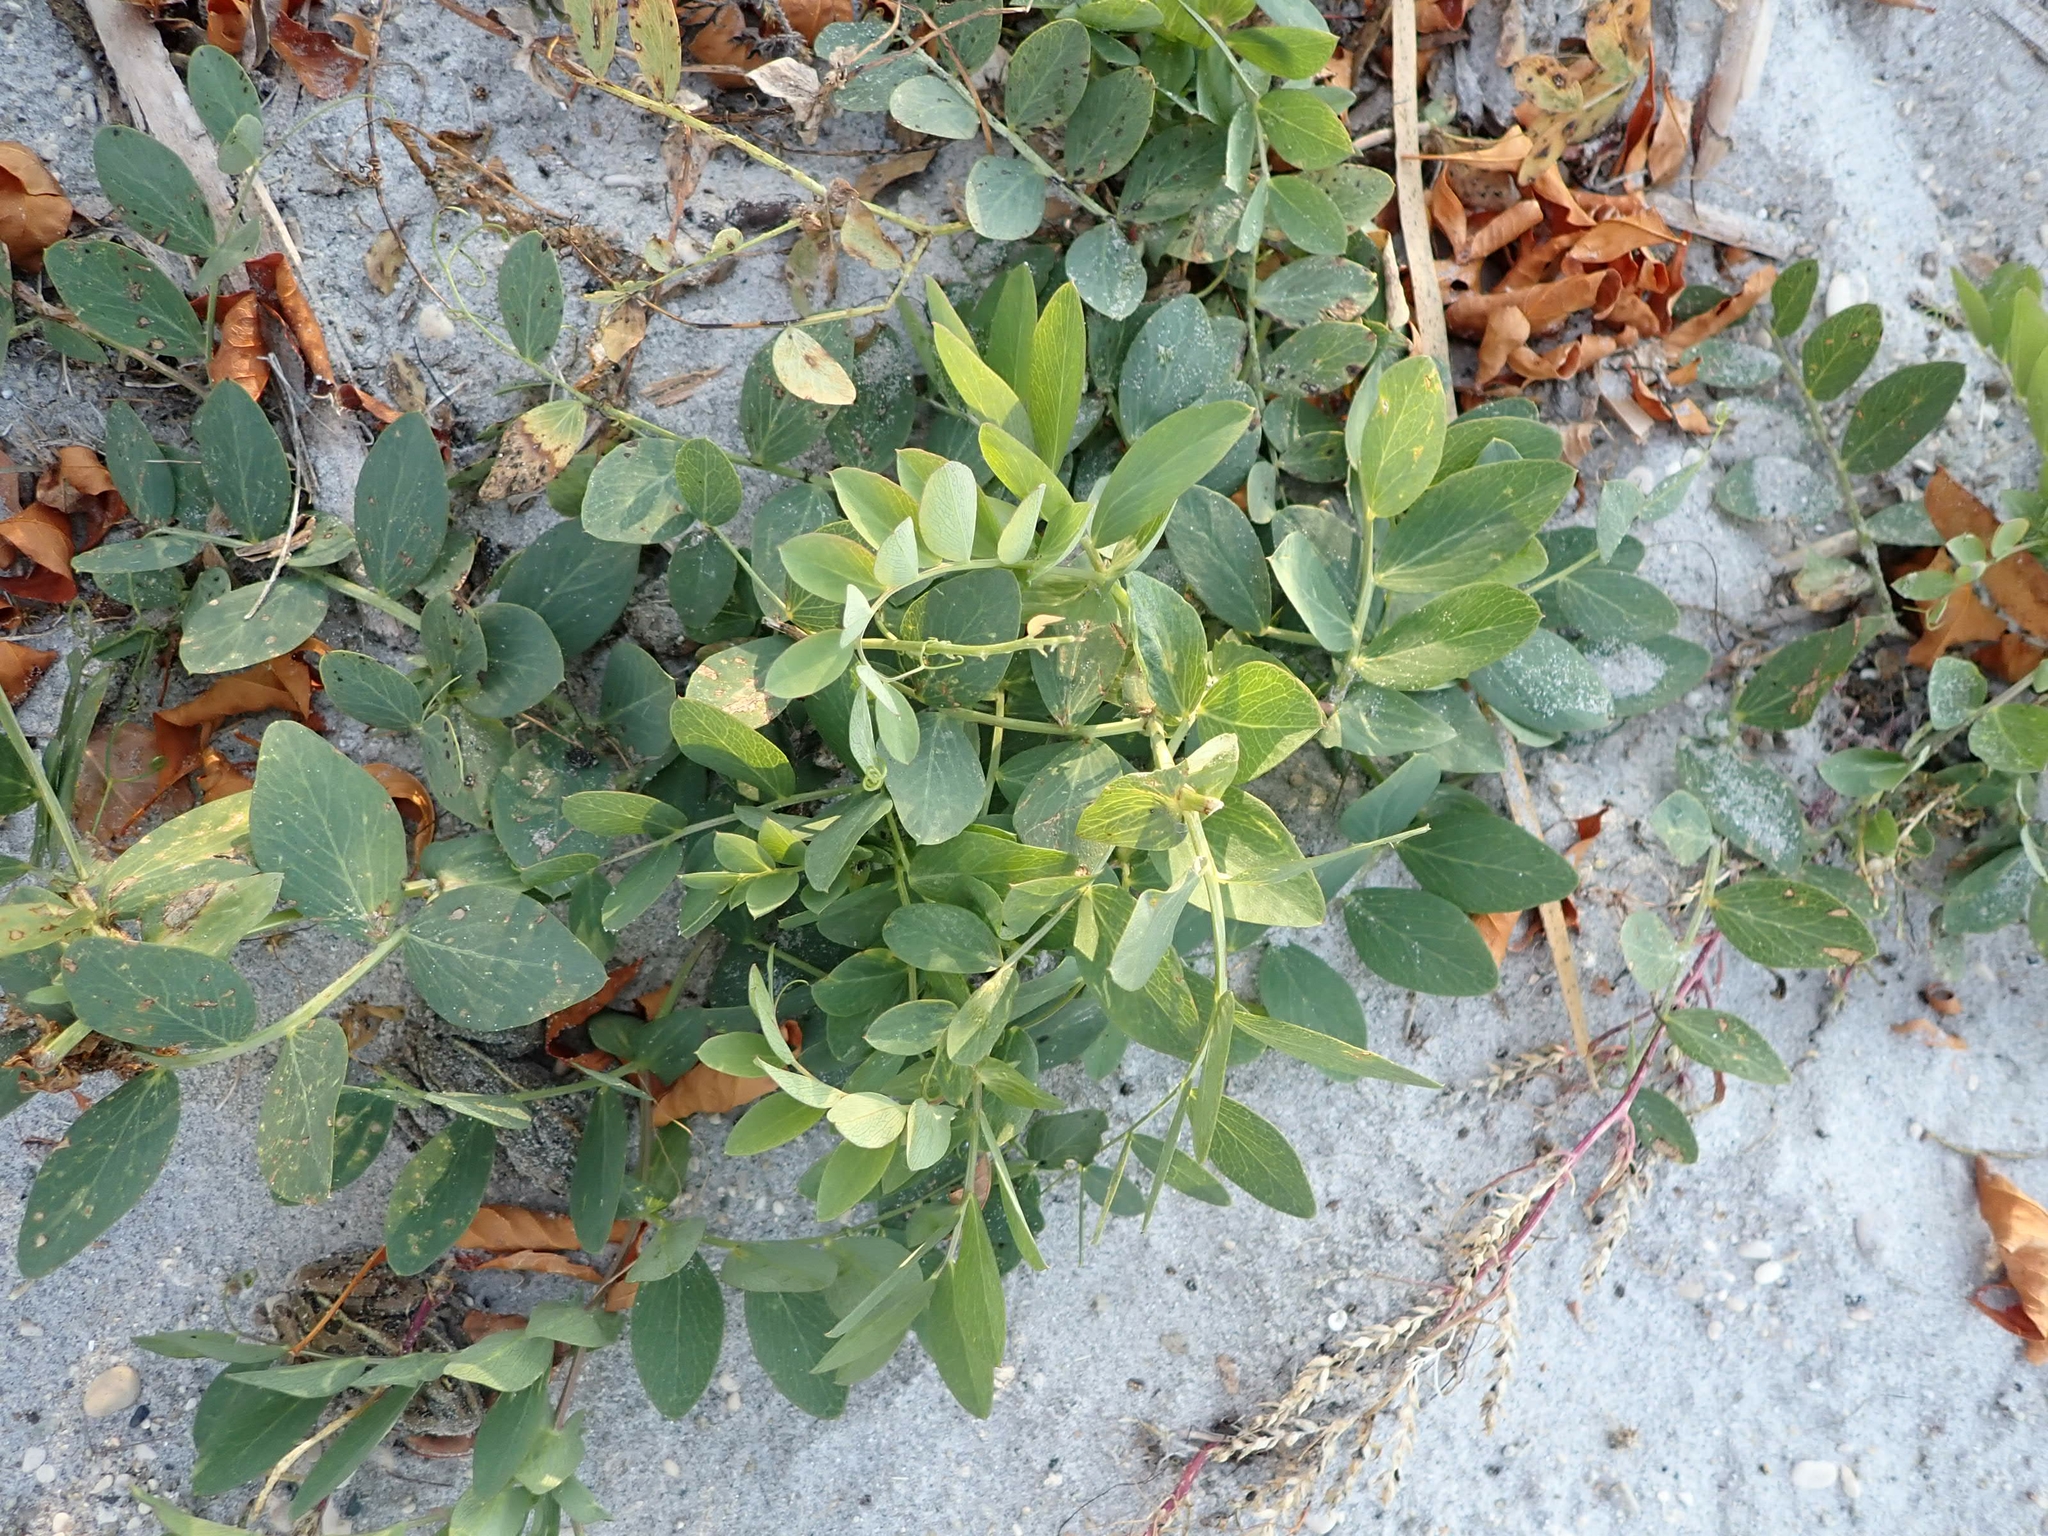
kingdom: Plantae
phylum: Tracheophyta
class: Magnoliopsida
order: Fabales
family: Fabaceae
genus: Lathyrus
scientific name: Lathyrus japonicus
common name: Sea pea
